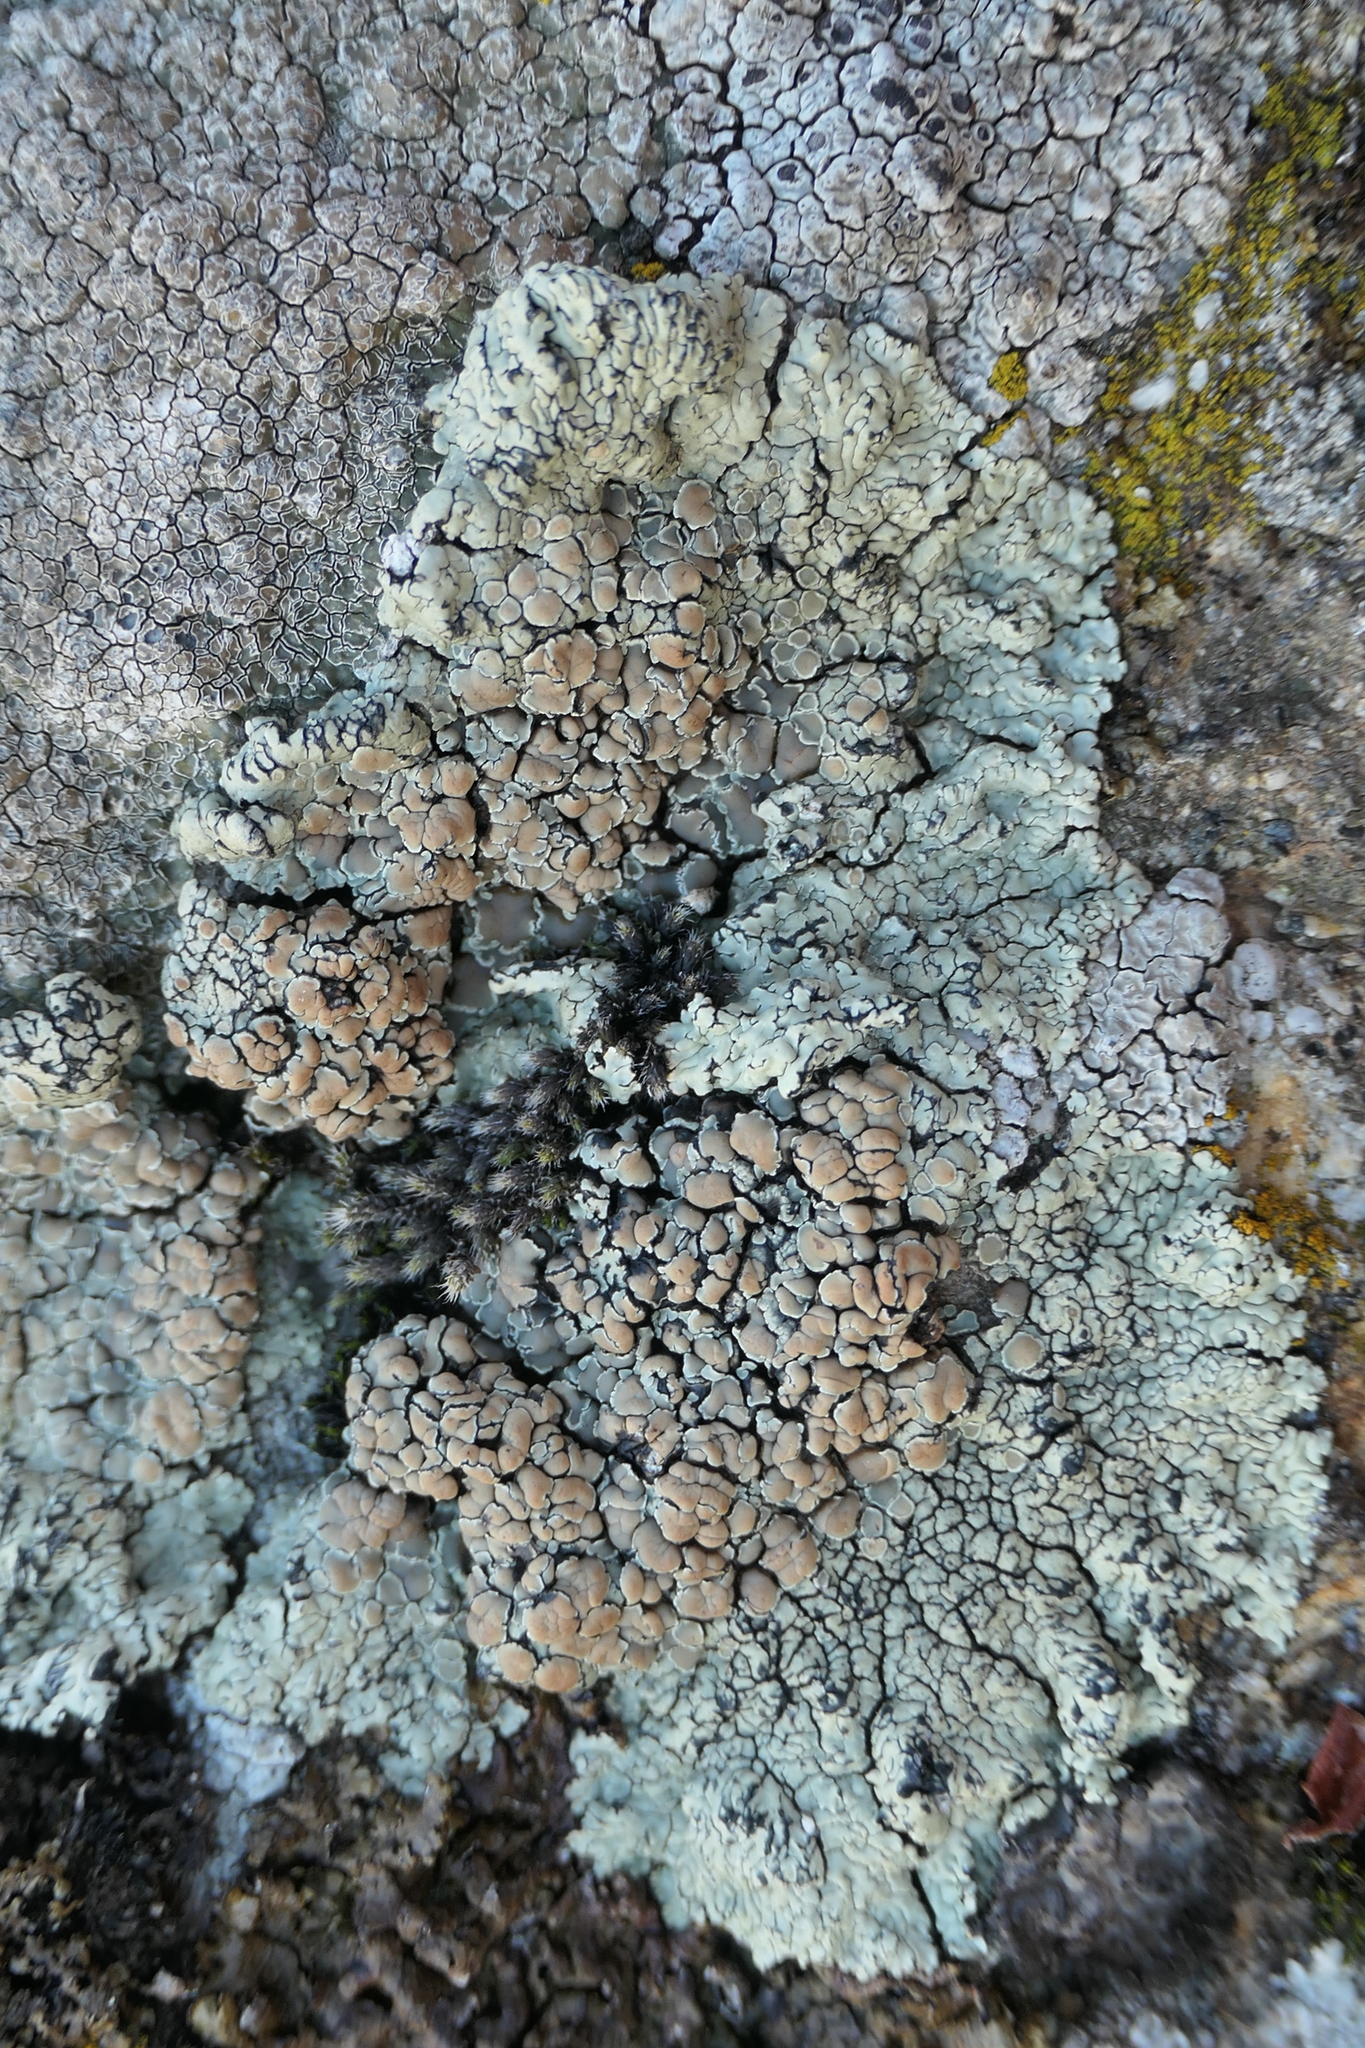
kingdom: Fungi
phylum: Ascomycota
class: Lecanoromycetes
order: Lecanorales
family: Lecanoraceae
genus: Protoparmeliopsis
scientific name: Protoparmeliopsis muralis
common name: Stonewall rim lichen
